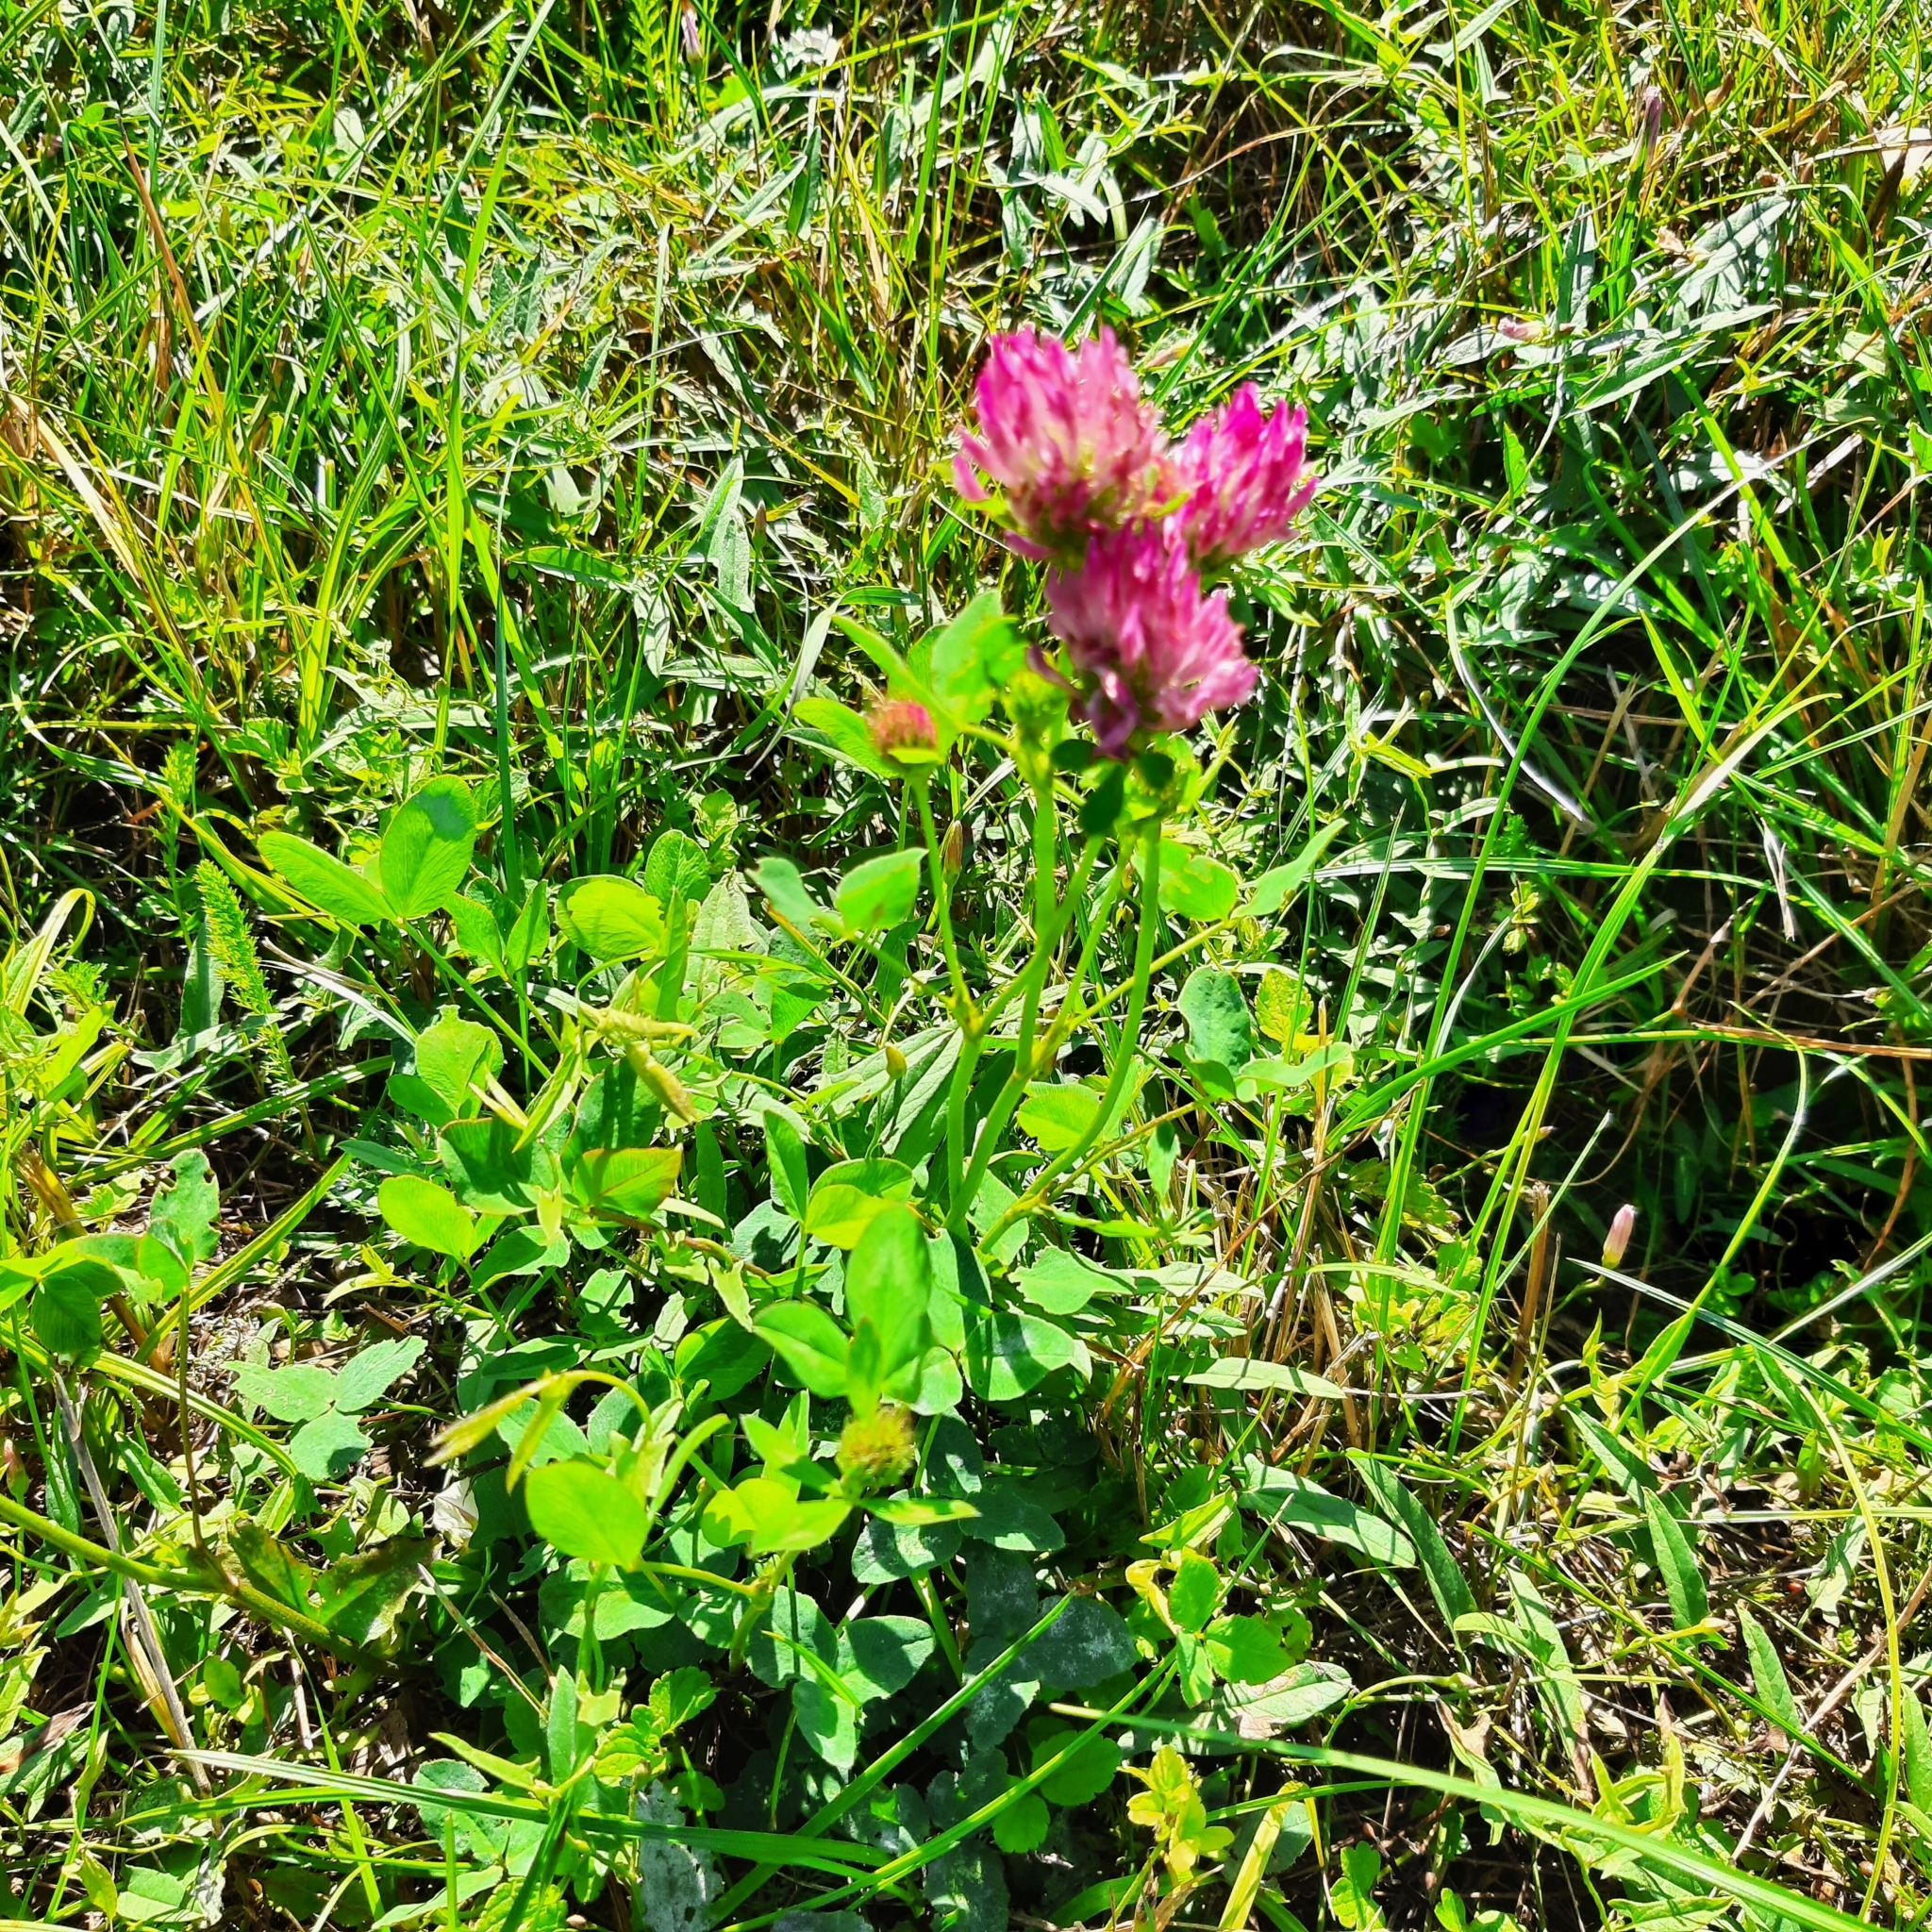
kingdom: Plantae
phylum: Tracheophyta
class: Magnoliopsida
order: Fabales
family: Fabaceae
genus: Trifolium
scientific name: Trifolium pratense
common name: Red clover
